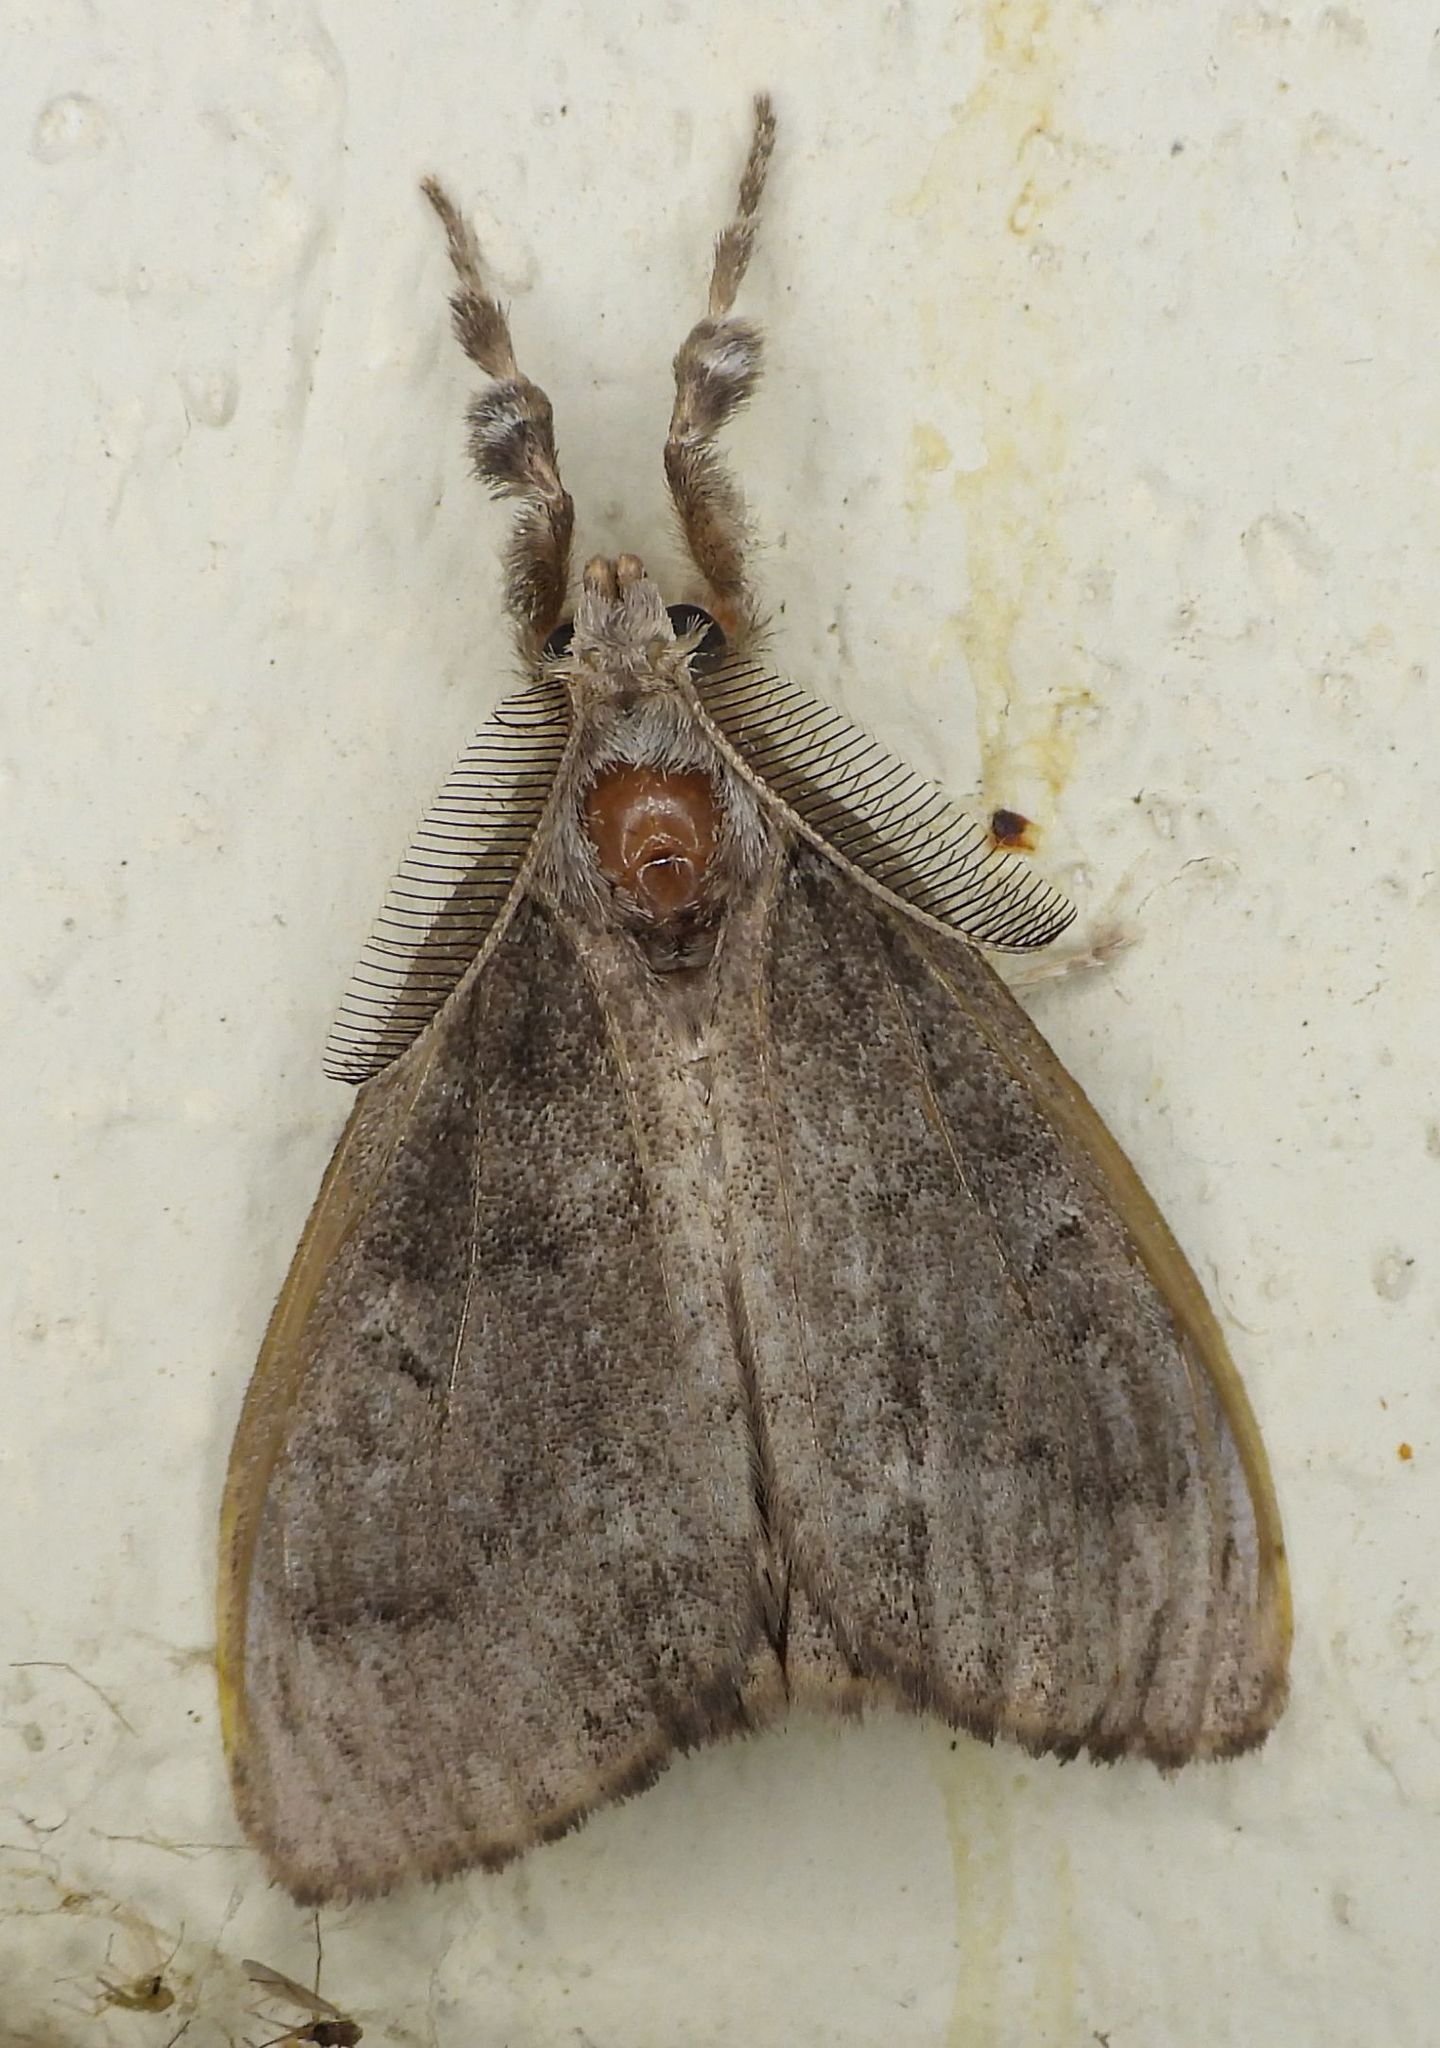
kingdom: Animalia
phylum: Arthropoda
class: Insecta
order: Lepidoptera
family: Erebidae
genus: Orgyia
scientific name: Orgyia leucostigma
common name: White-marked tussock moth
